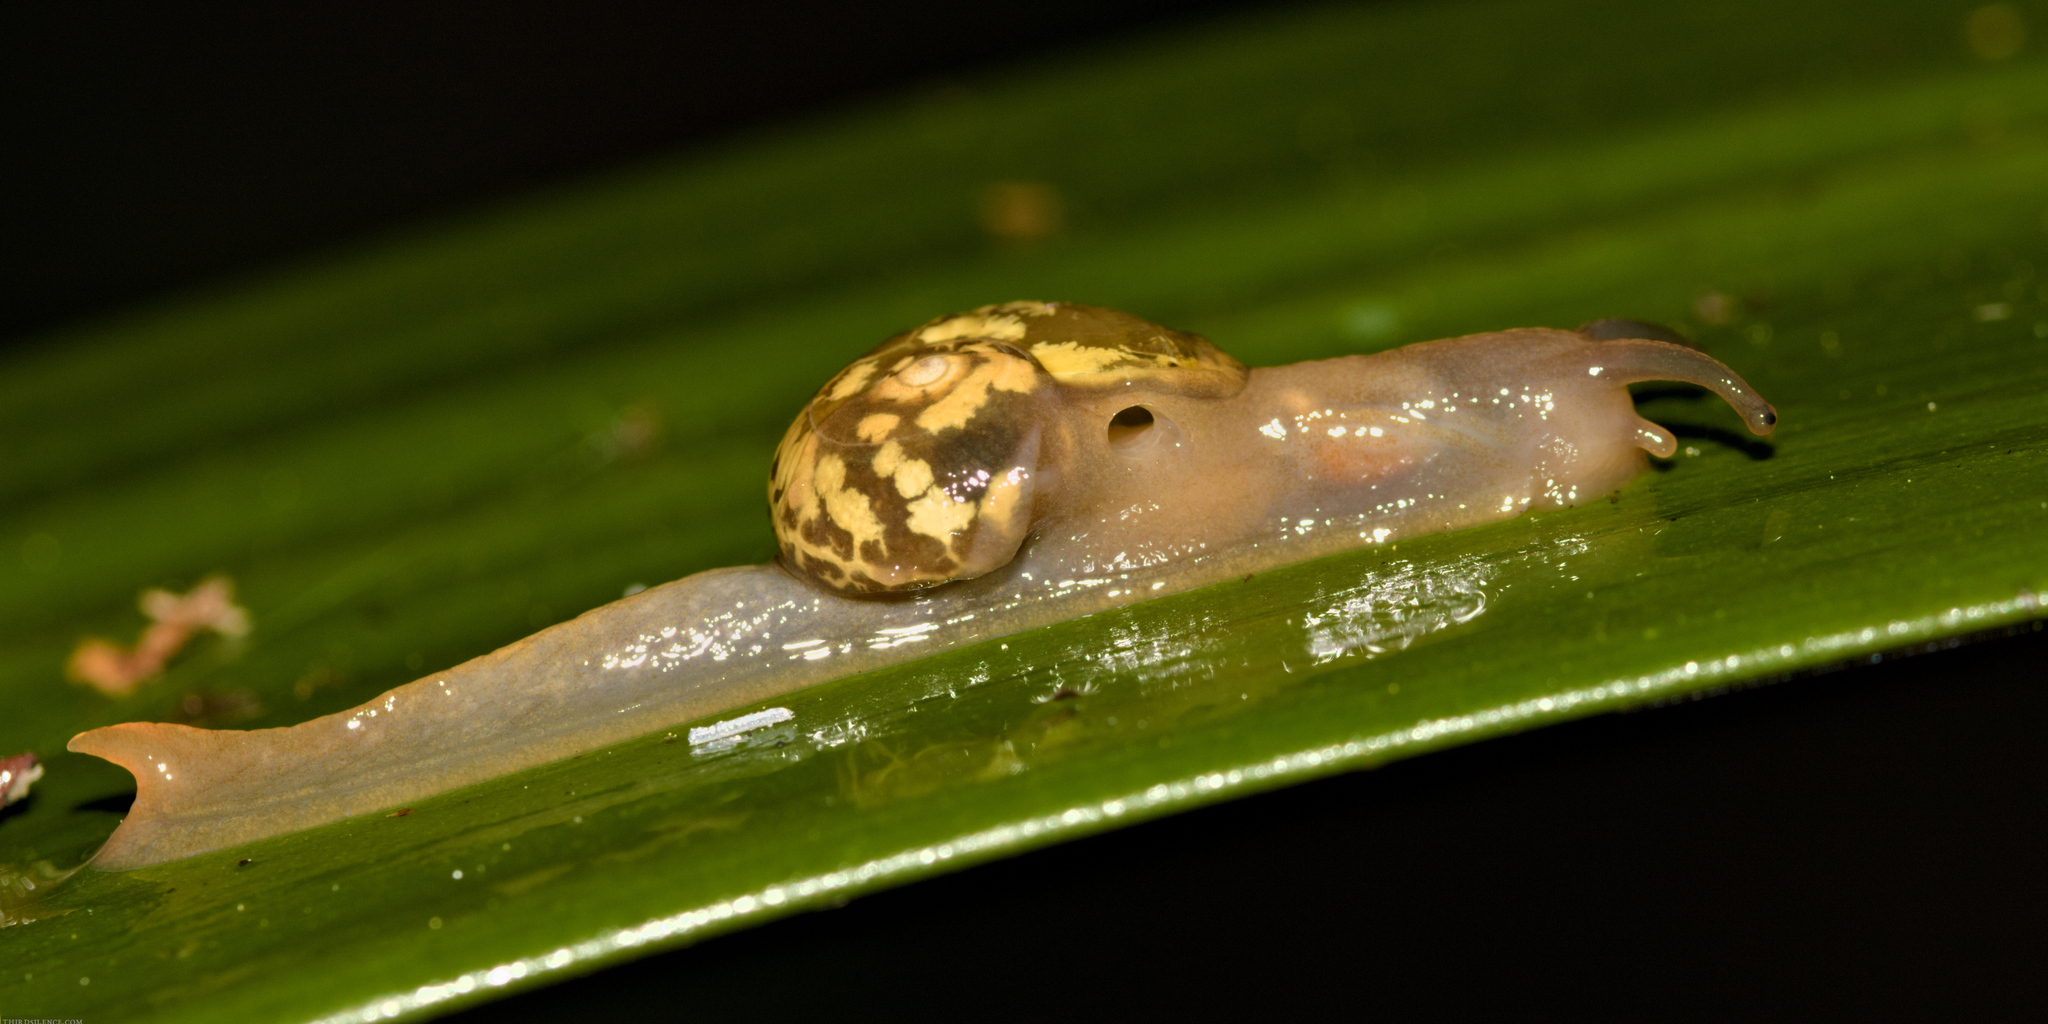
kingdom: Animalia
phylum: Mollusca
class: Gastropoda
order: Stylommatophora
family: Helicarionidae
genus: Mysticarion
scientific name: Mysticarion porrectus
